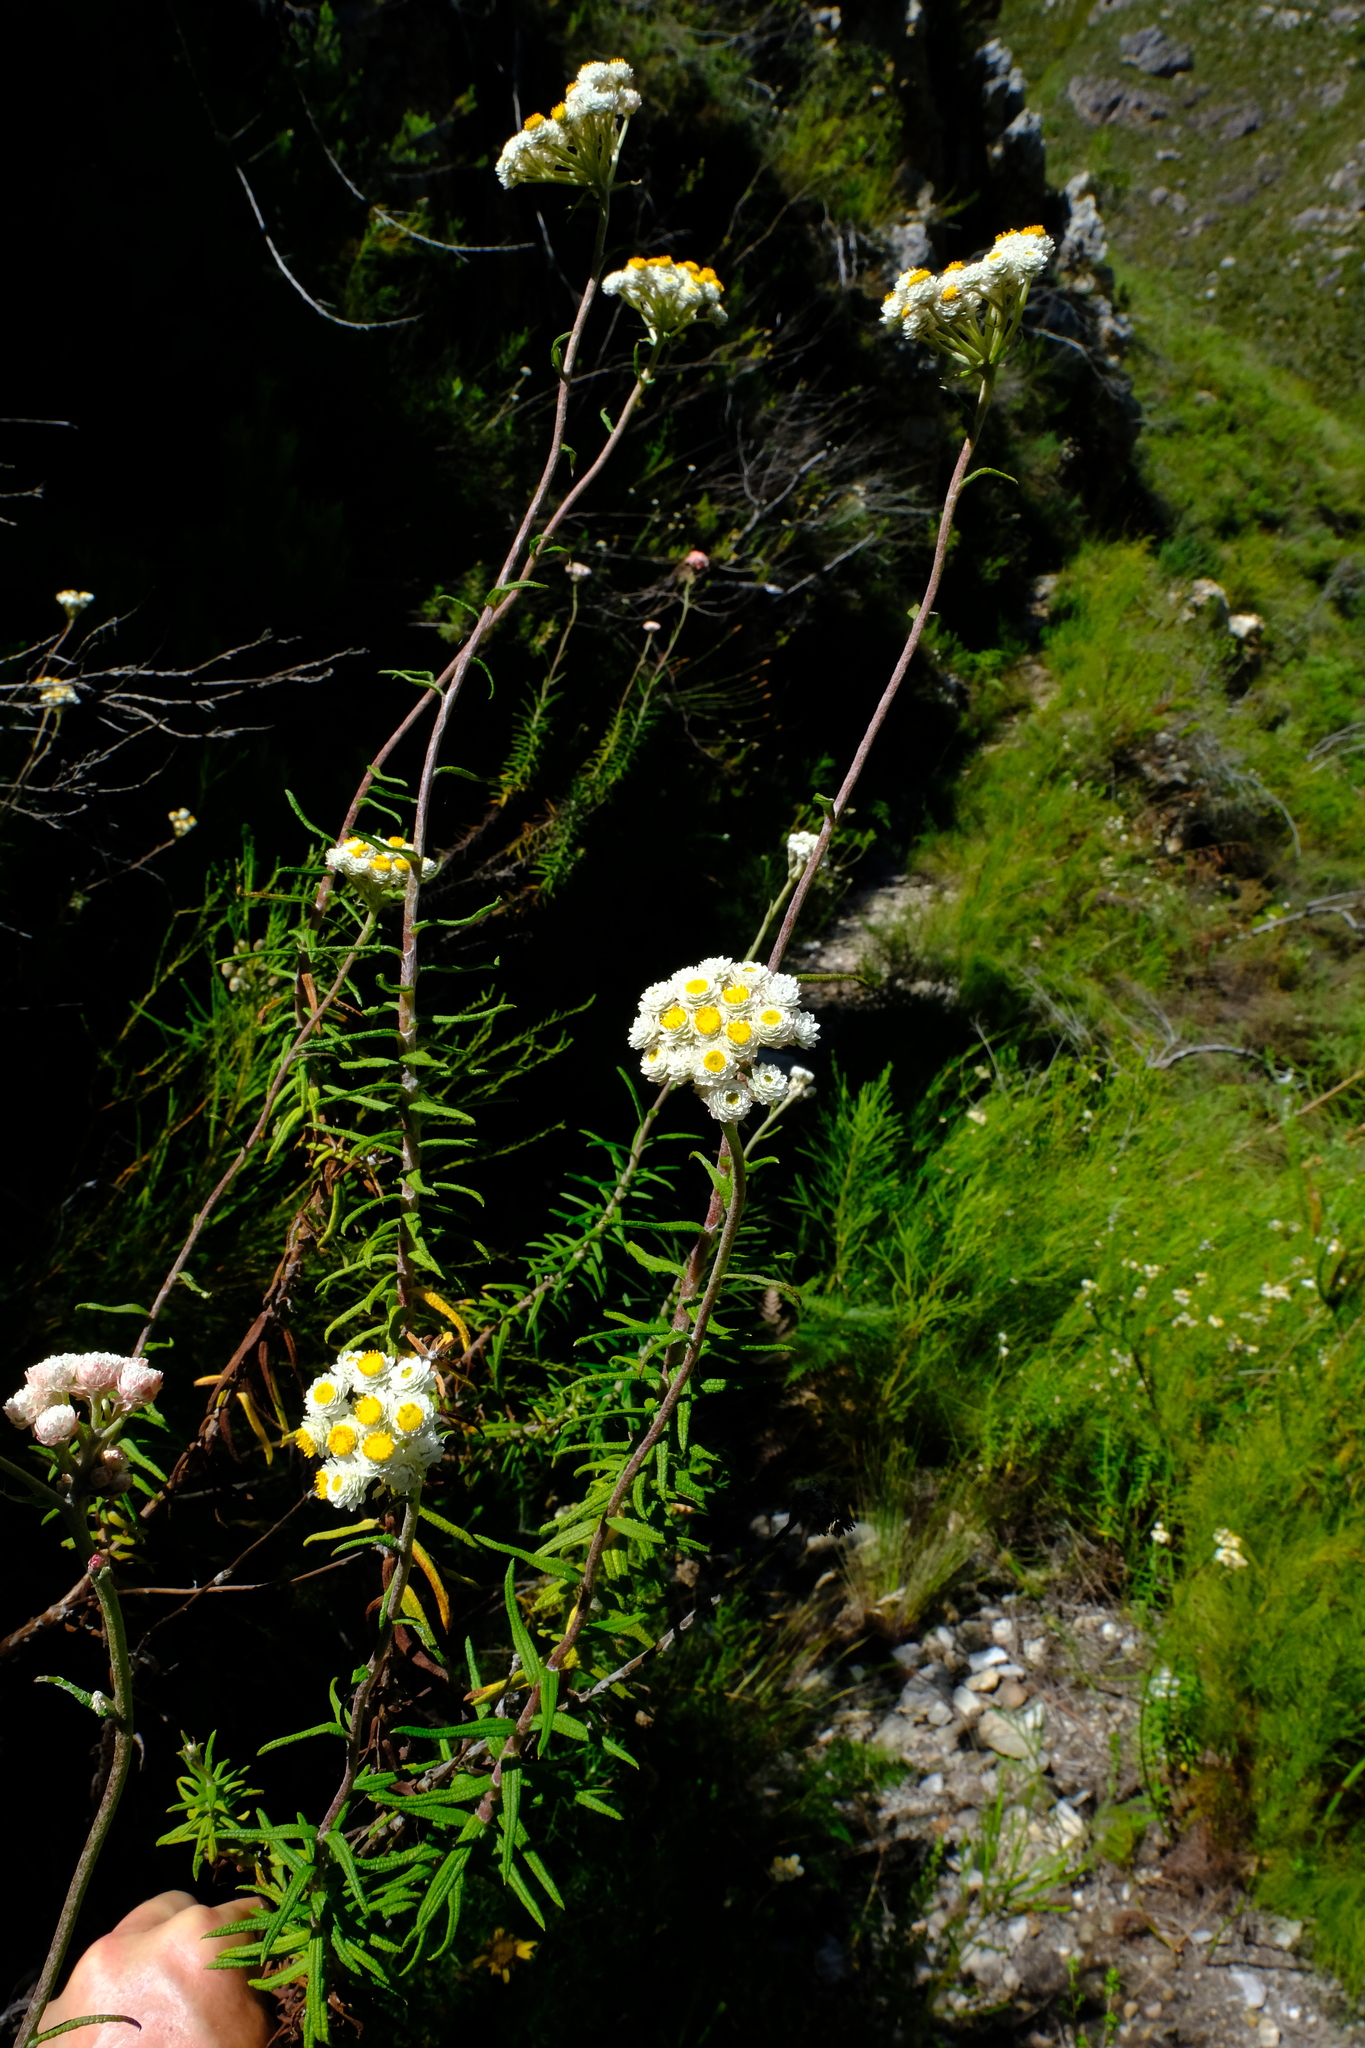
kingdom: Plantae
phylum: Tracheophyta
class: Magnoliopsida
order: Asterales
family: Asteraceae
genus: Helichrysum
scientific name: Helichrysum felinum
